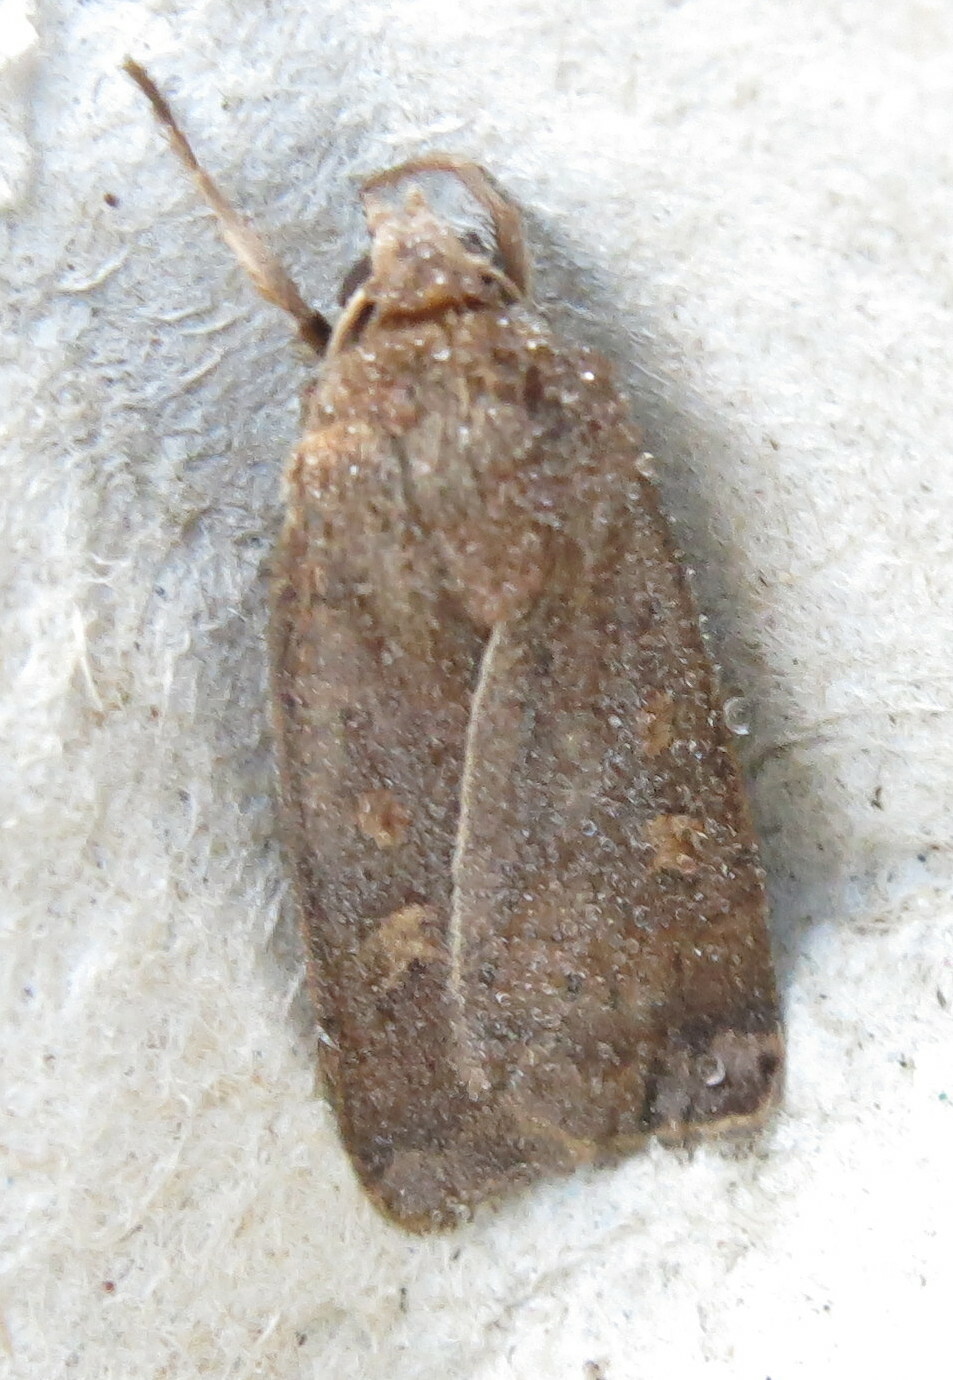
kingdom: Animalia
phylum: Arthropoda
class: Insecta
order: Lepidoptera
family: Noctuidae
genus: Xestia
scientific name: Xestia xanthographa
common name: Square-spot rustic
